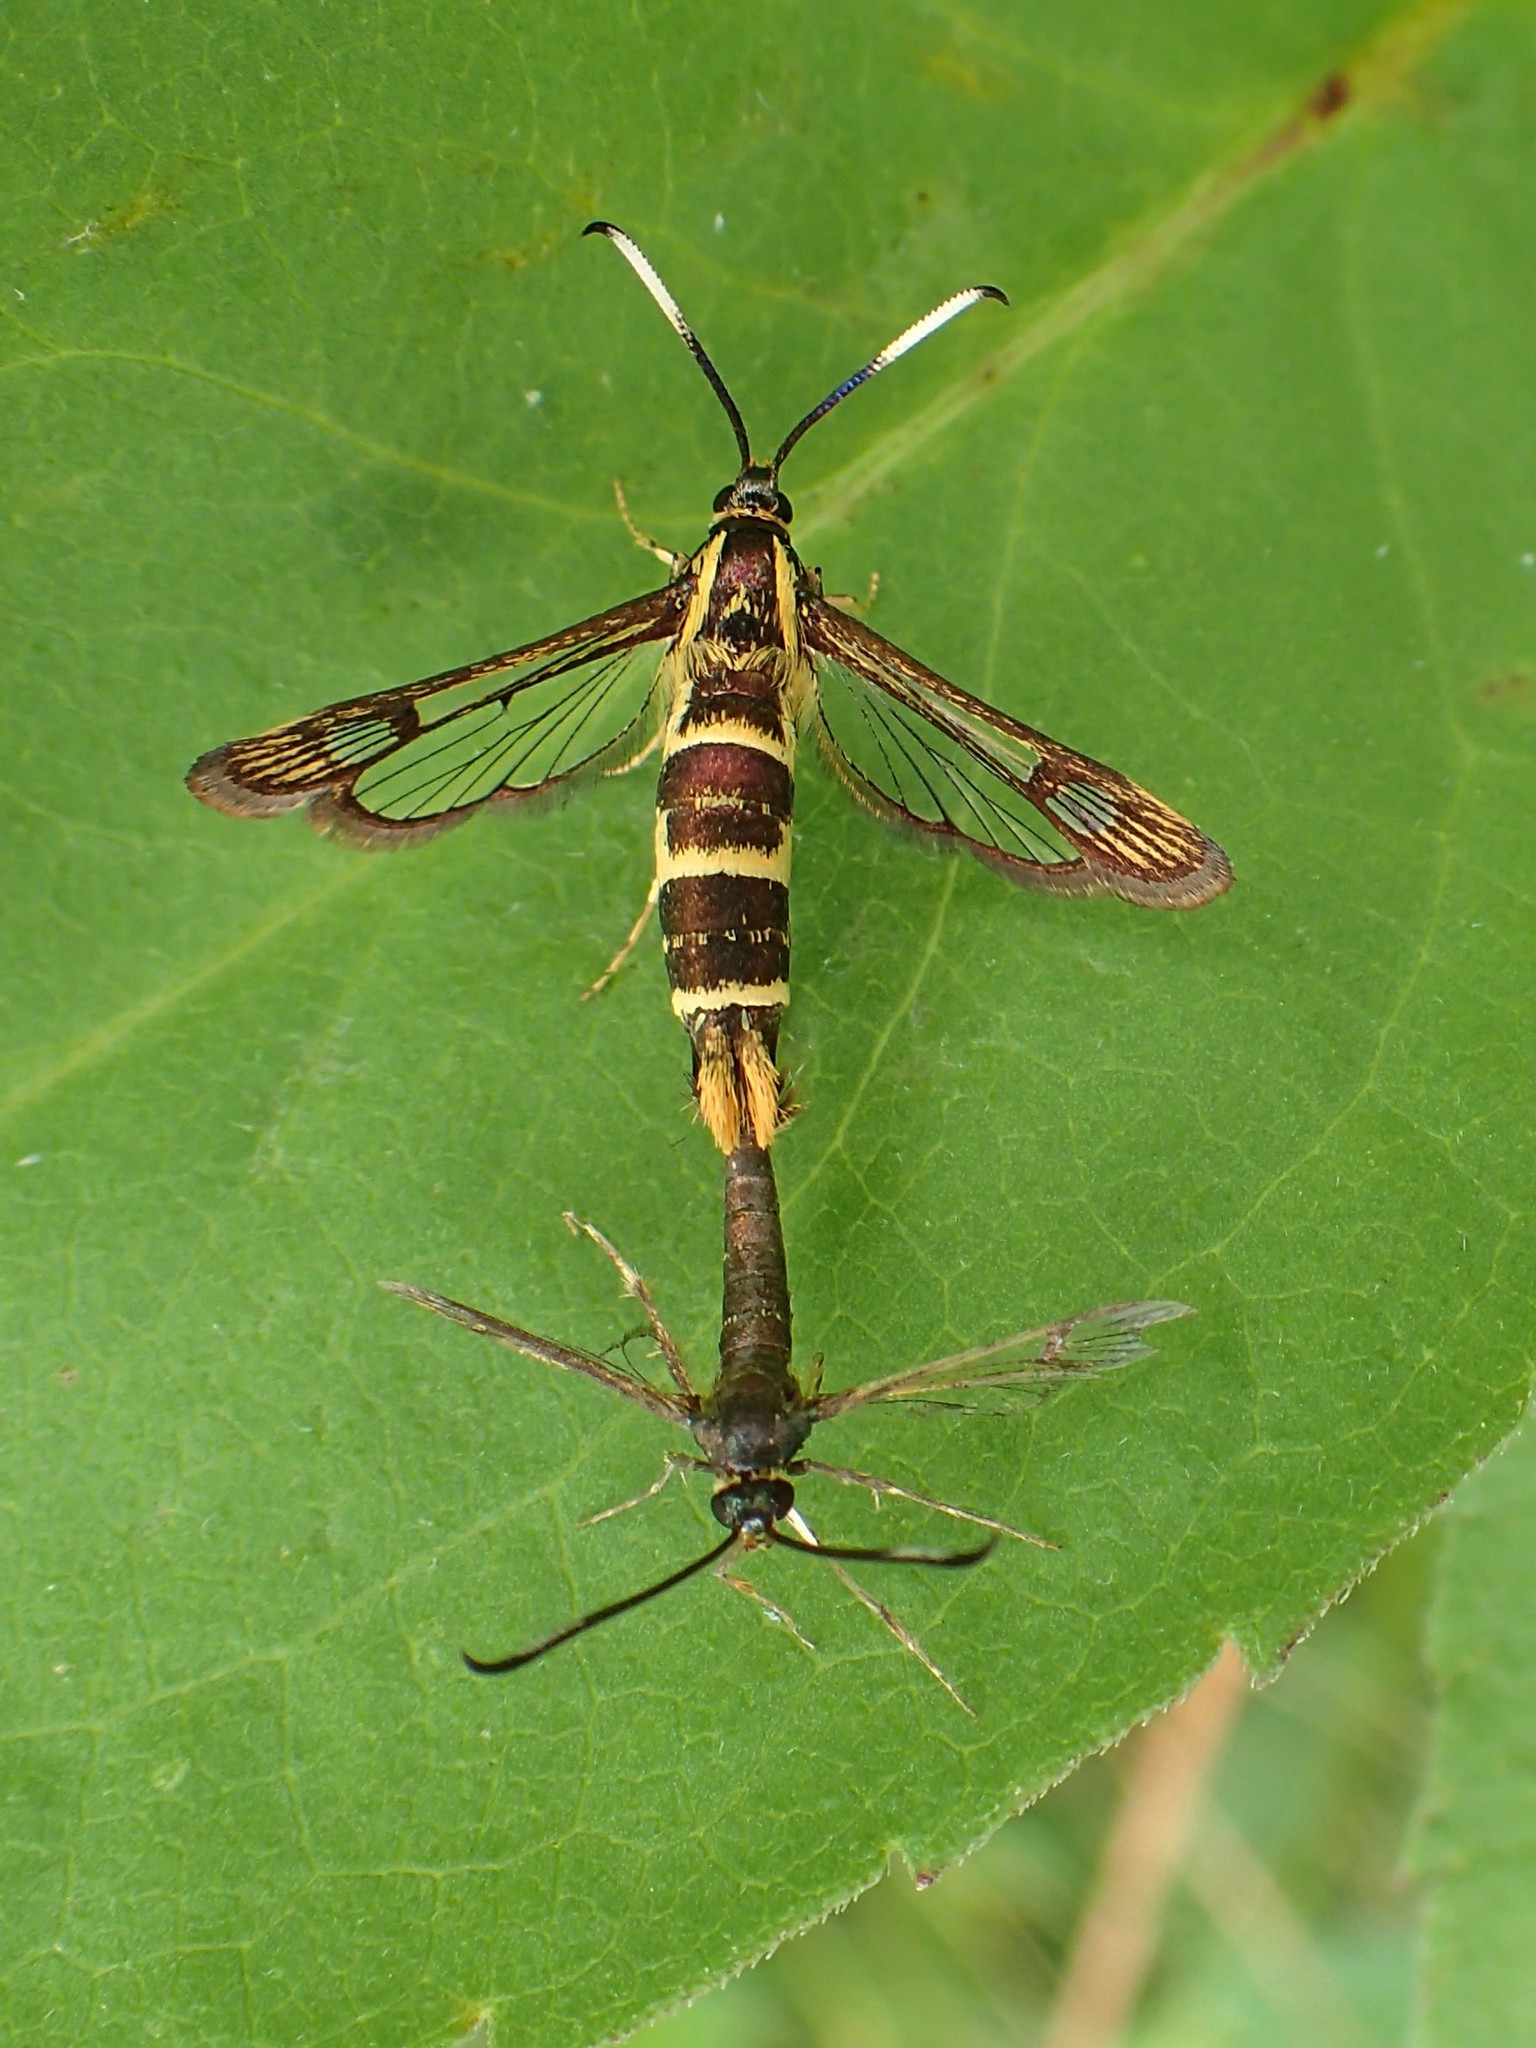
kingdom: Animalia
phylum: Arthropoda
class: Insecta
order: Lepidoptera
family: Sesiidae
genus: Carmenta
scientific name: Carmenta bassiformis
